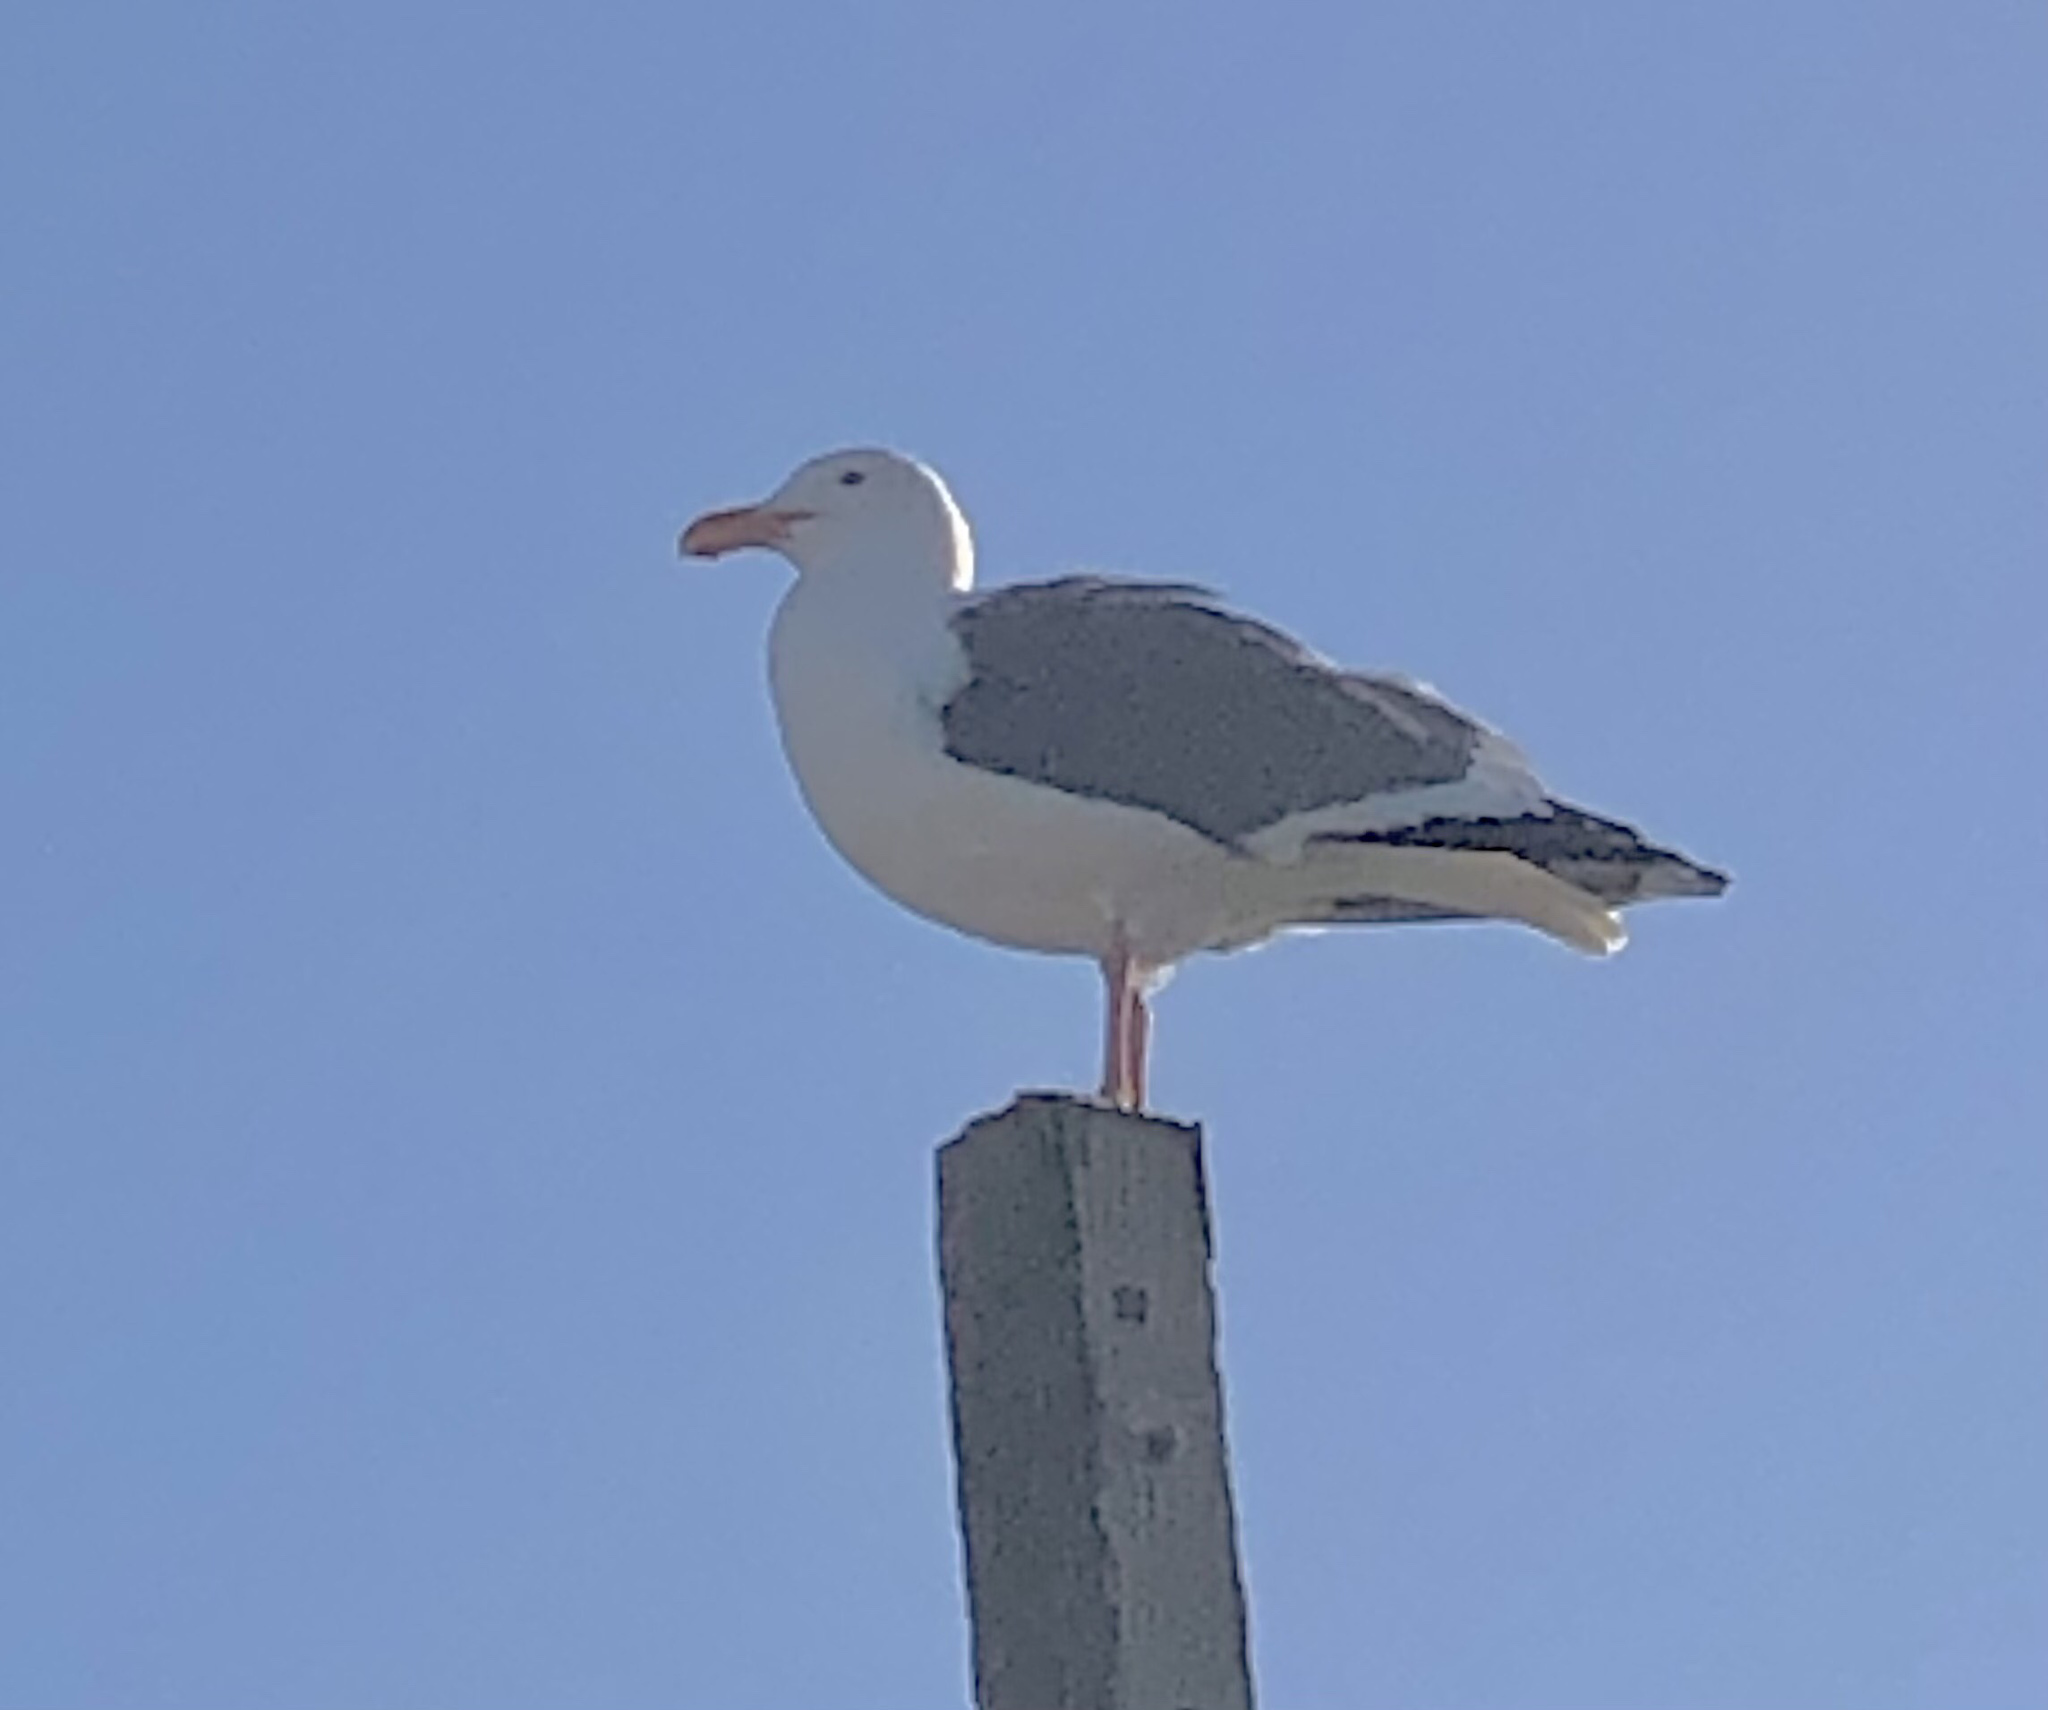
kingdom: Animalia
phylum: Chordata
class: Aves
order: Charadriiformes
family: Laridae
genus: Larus
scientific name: Larus occidentalis
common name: Western gull
